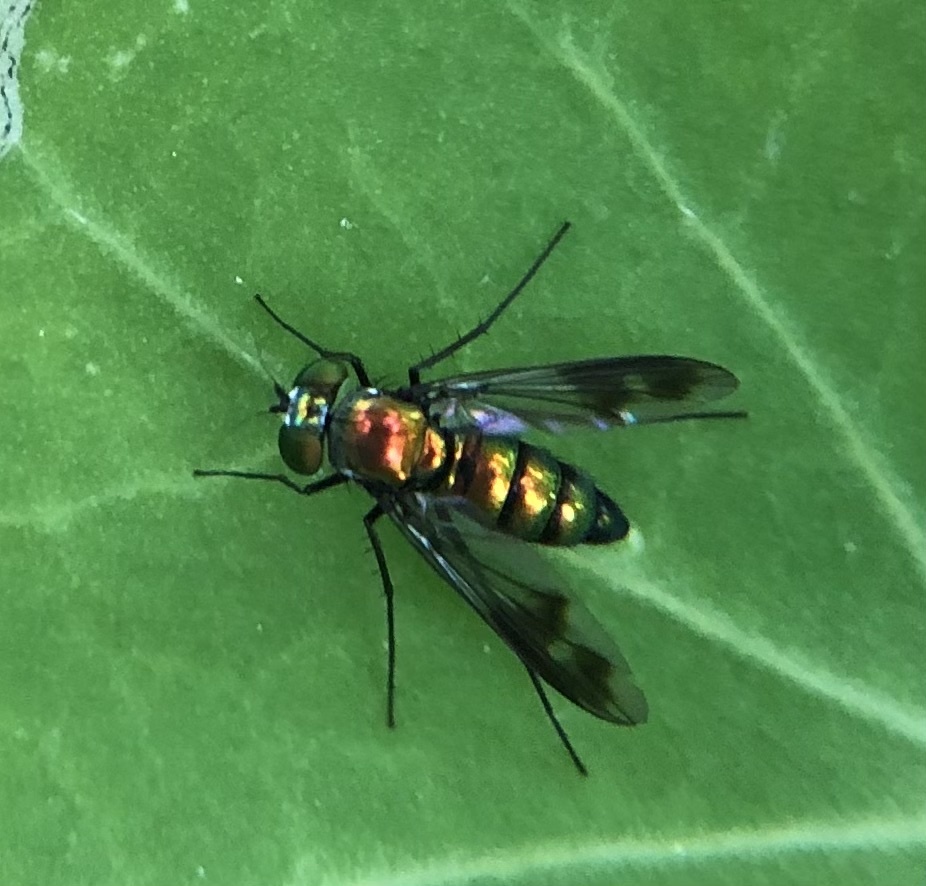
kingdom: Animalia
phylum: Arthropoda
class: Insecta
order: Diptera
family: Dolichopodidae
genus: Condylostylus
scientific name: Condylostylus patibulatus
